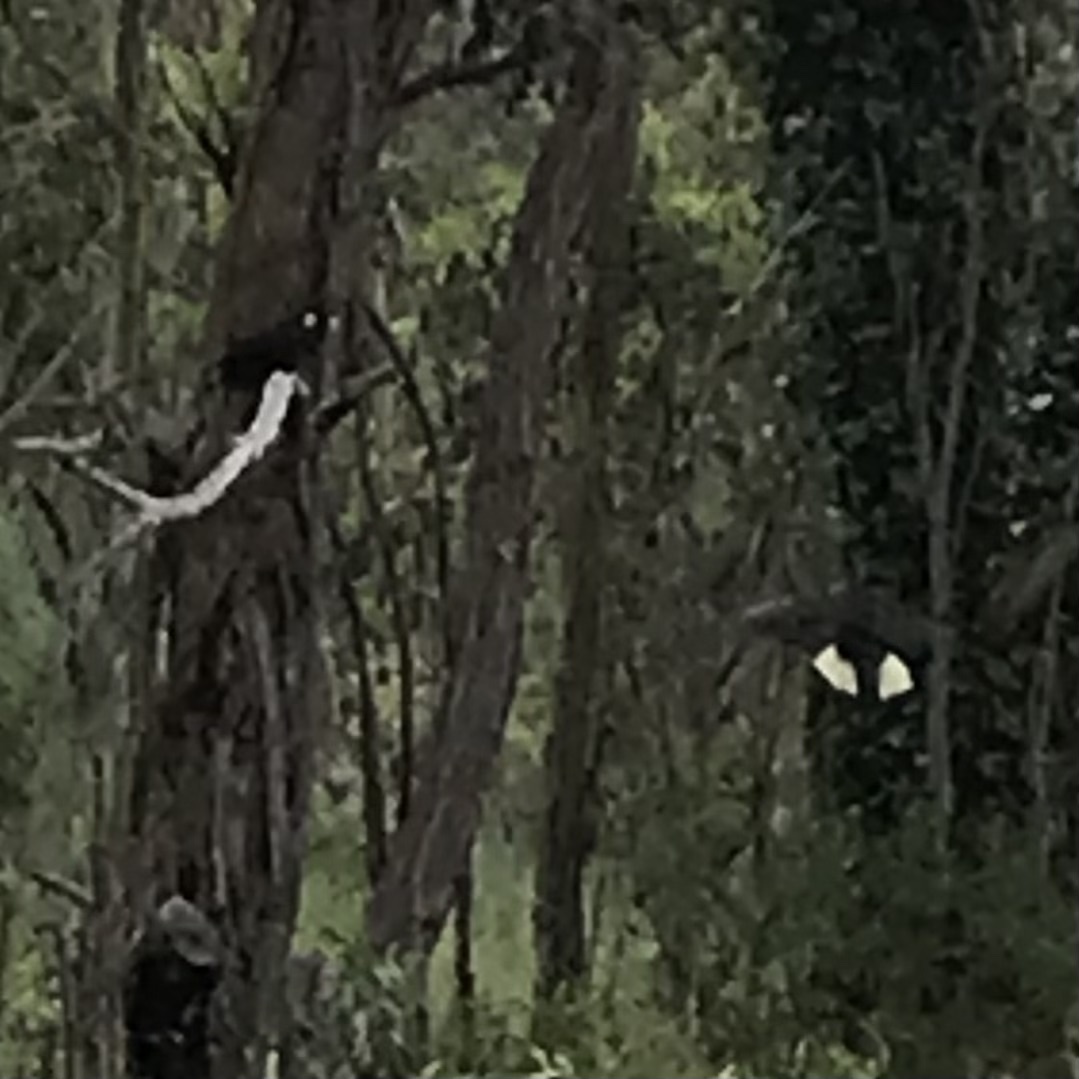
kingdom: Animalia
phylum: Chordata
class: Aves
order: Psittaciformes
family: Cacatuidae
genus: Zanda
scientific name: Zanda funerea
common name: Yellow-tailed black-cockatoo
